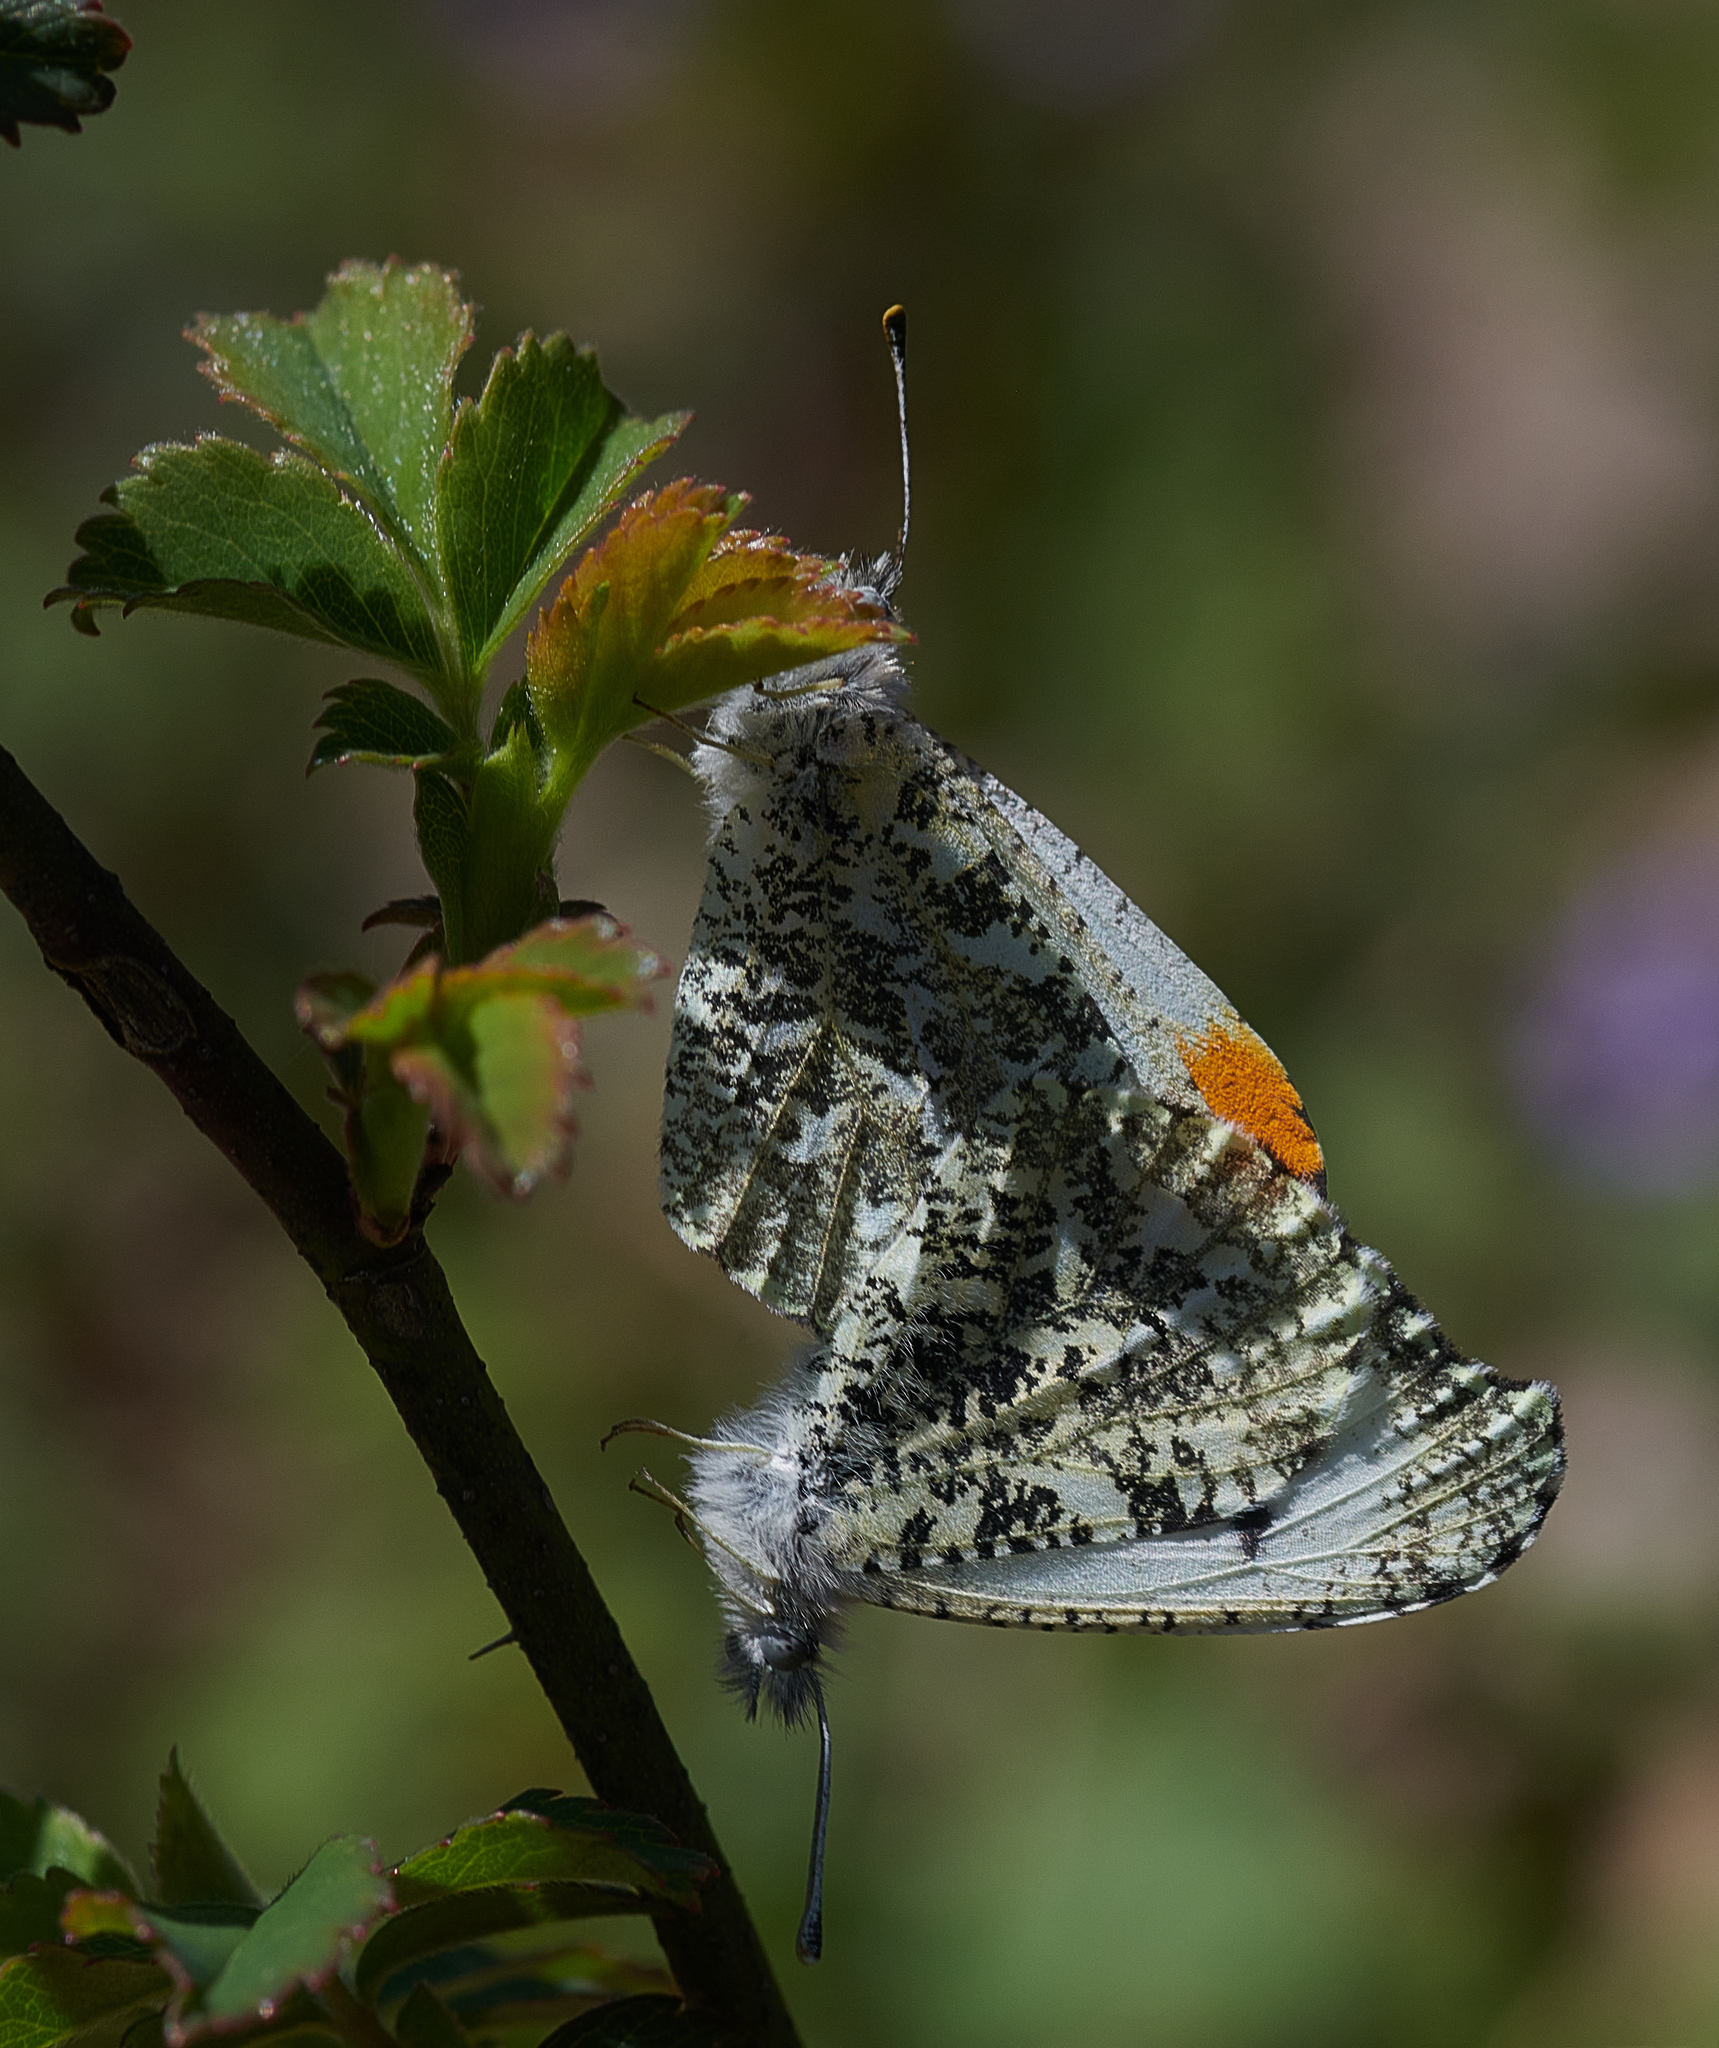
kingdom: Animalia
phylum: Arthropoda
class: Insecta
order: Lepidoptera
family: Pieridae
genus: Anthocharis
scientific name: Anthocharis midea
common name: Falcate orangetip
